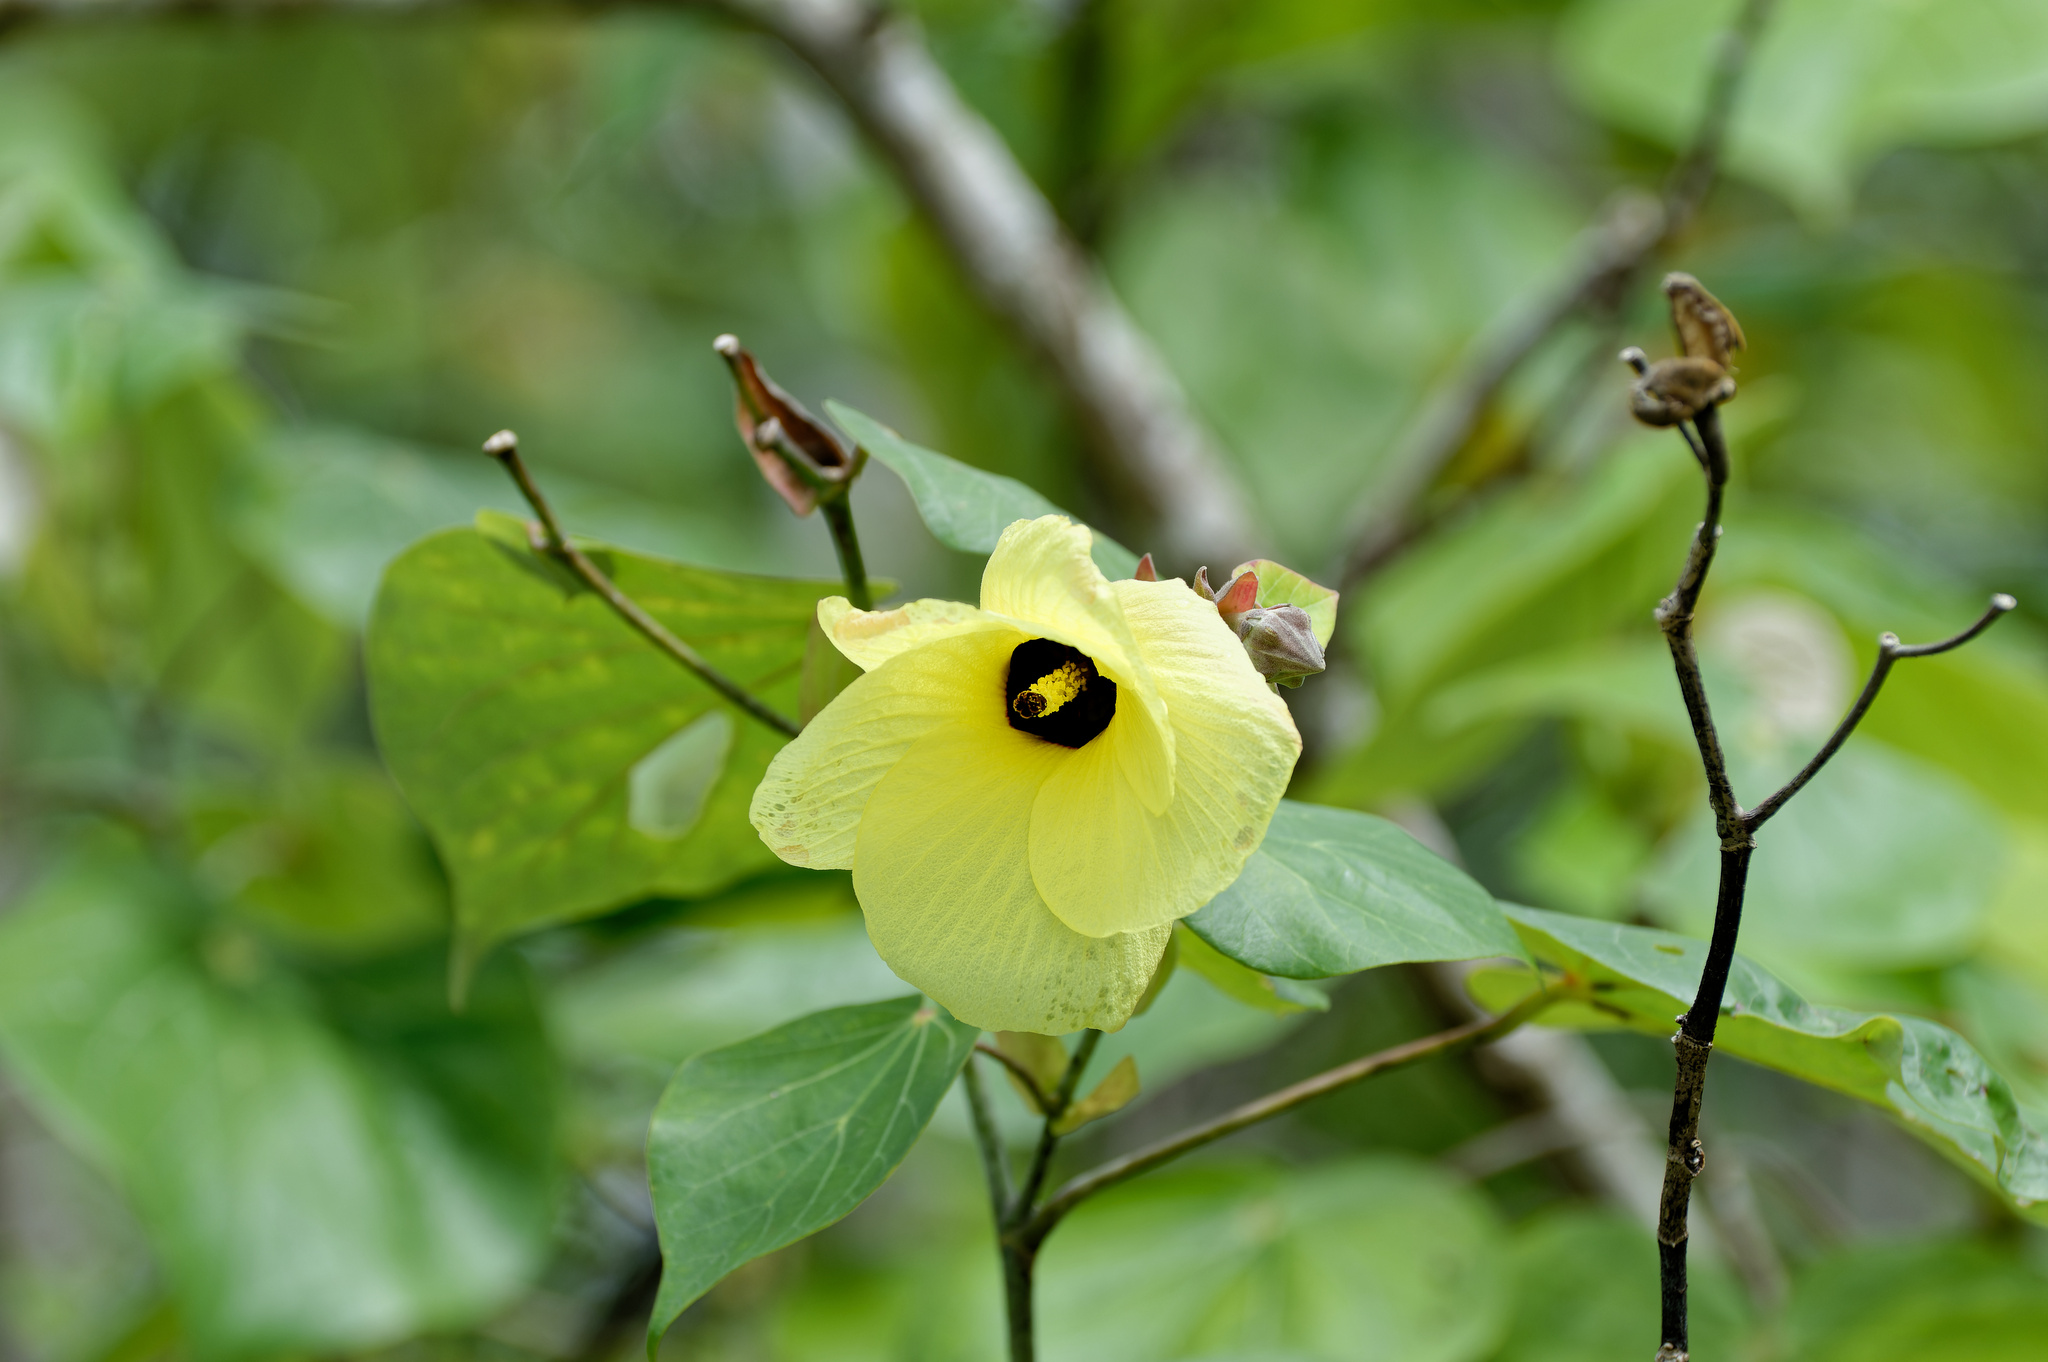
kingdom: Plantae
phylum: Tracheophyta
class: Magnoliopsida
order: Malvales
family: Malvaceae
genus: Talipariti
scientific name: Talipariti tiliaceum
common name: Sea hibiscus
